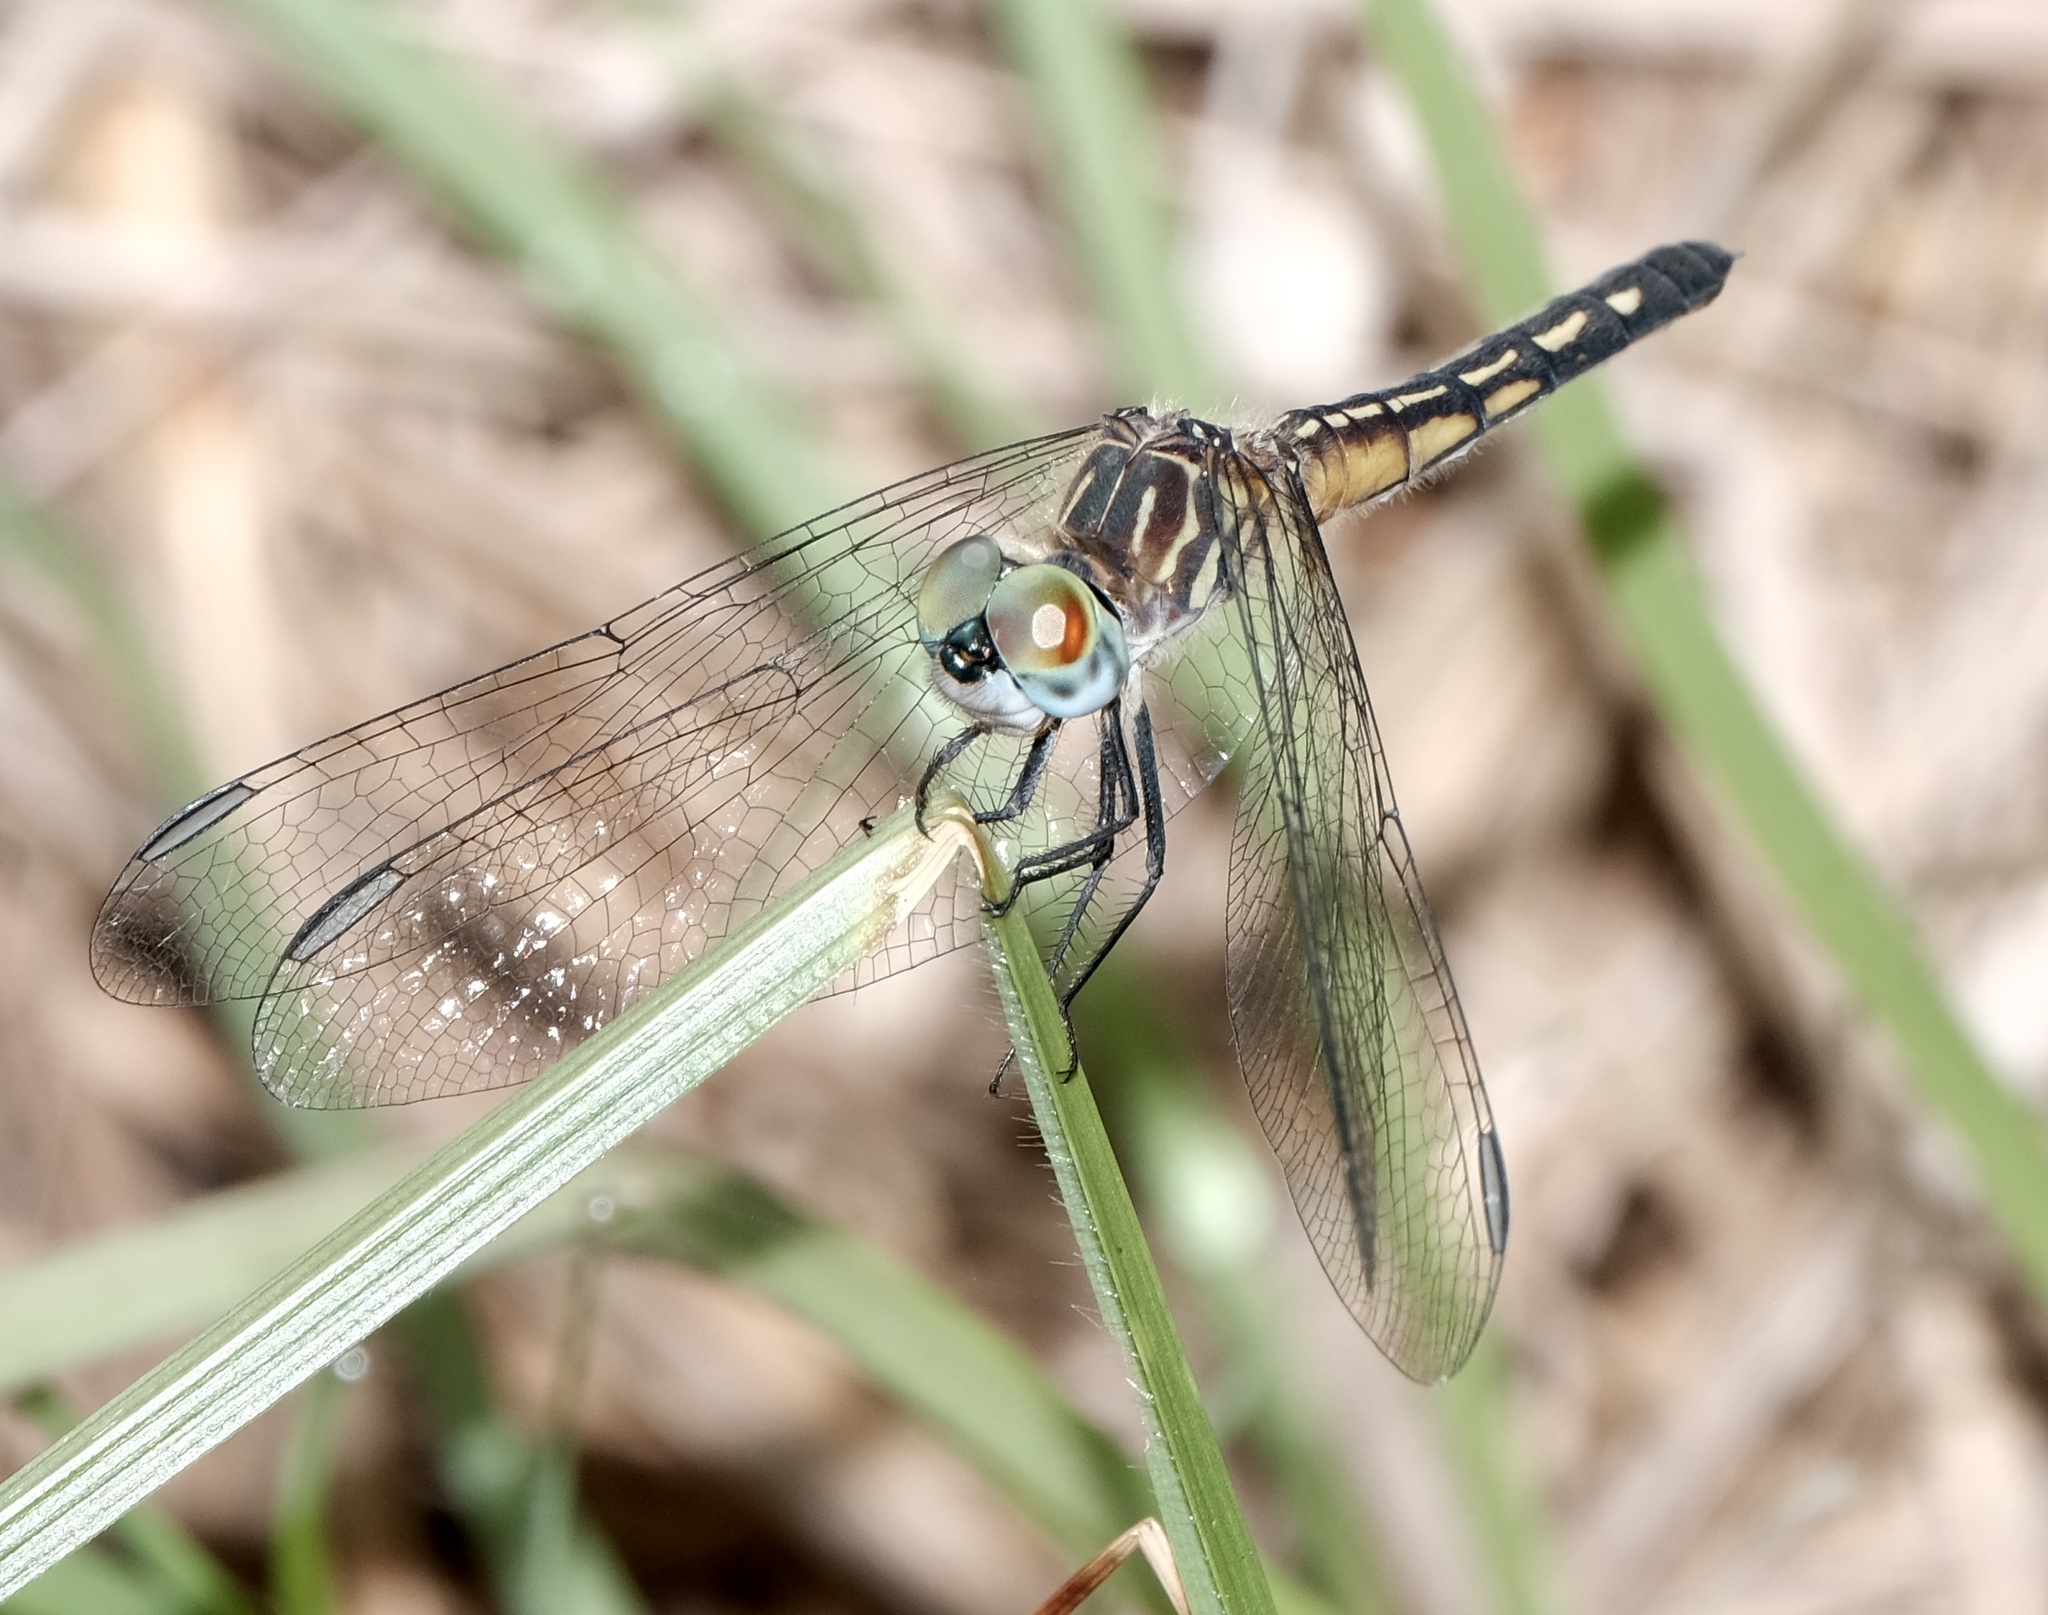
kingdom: Animalia
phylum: Arthropoda
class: Insecta
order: Odonata
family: Libellulidae
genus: Pachydiplax
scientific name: Pachydiplax longipennis
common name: Blue dasher
